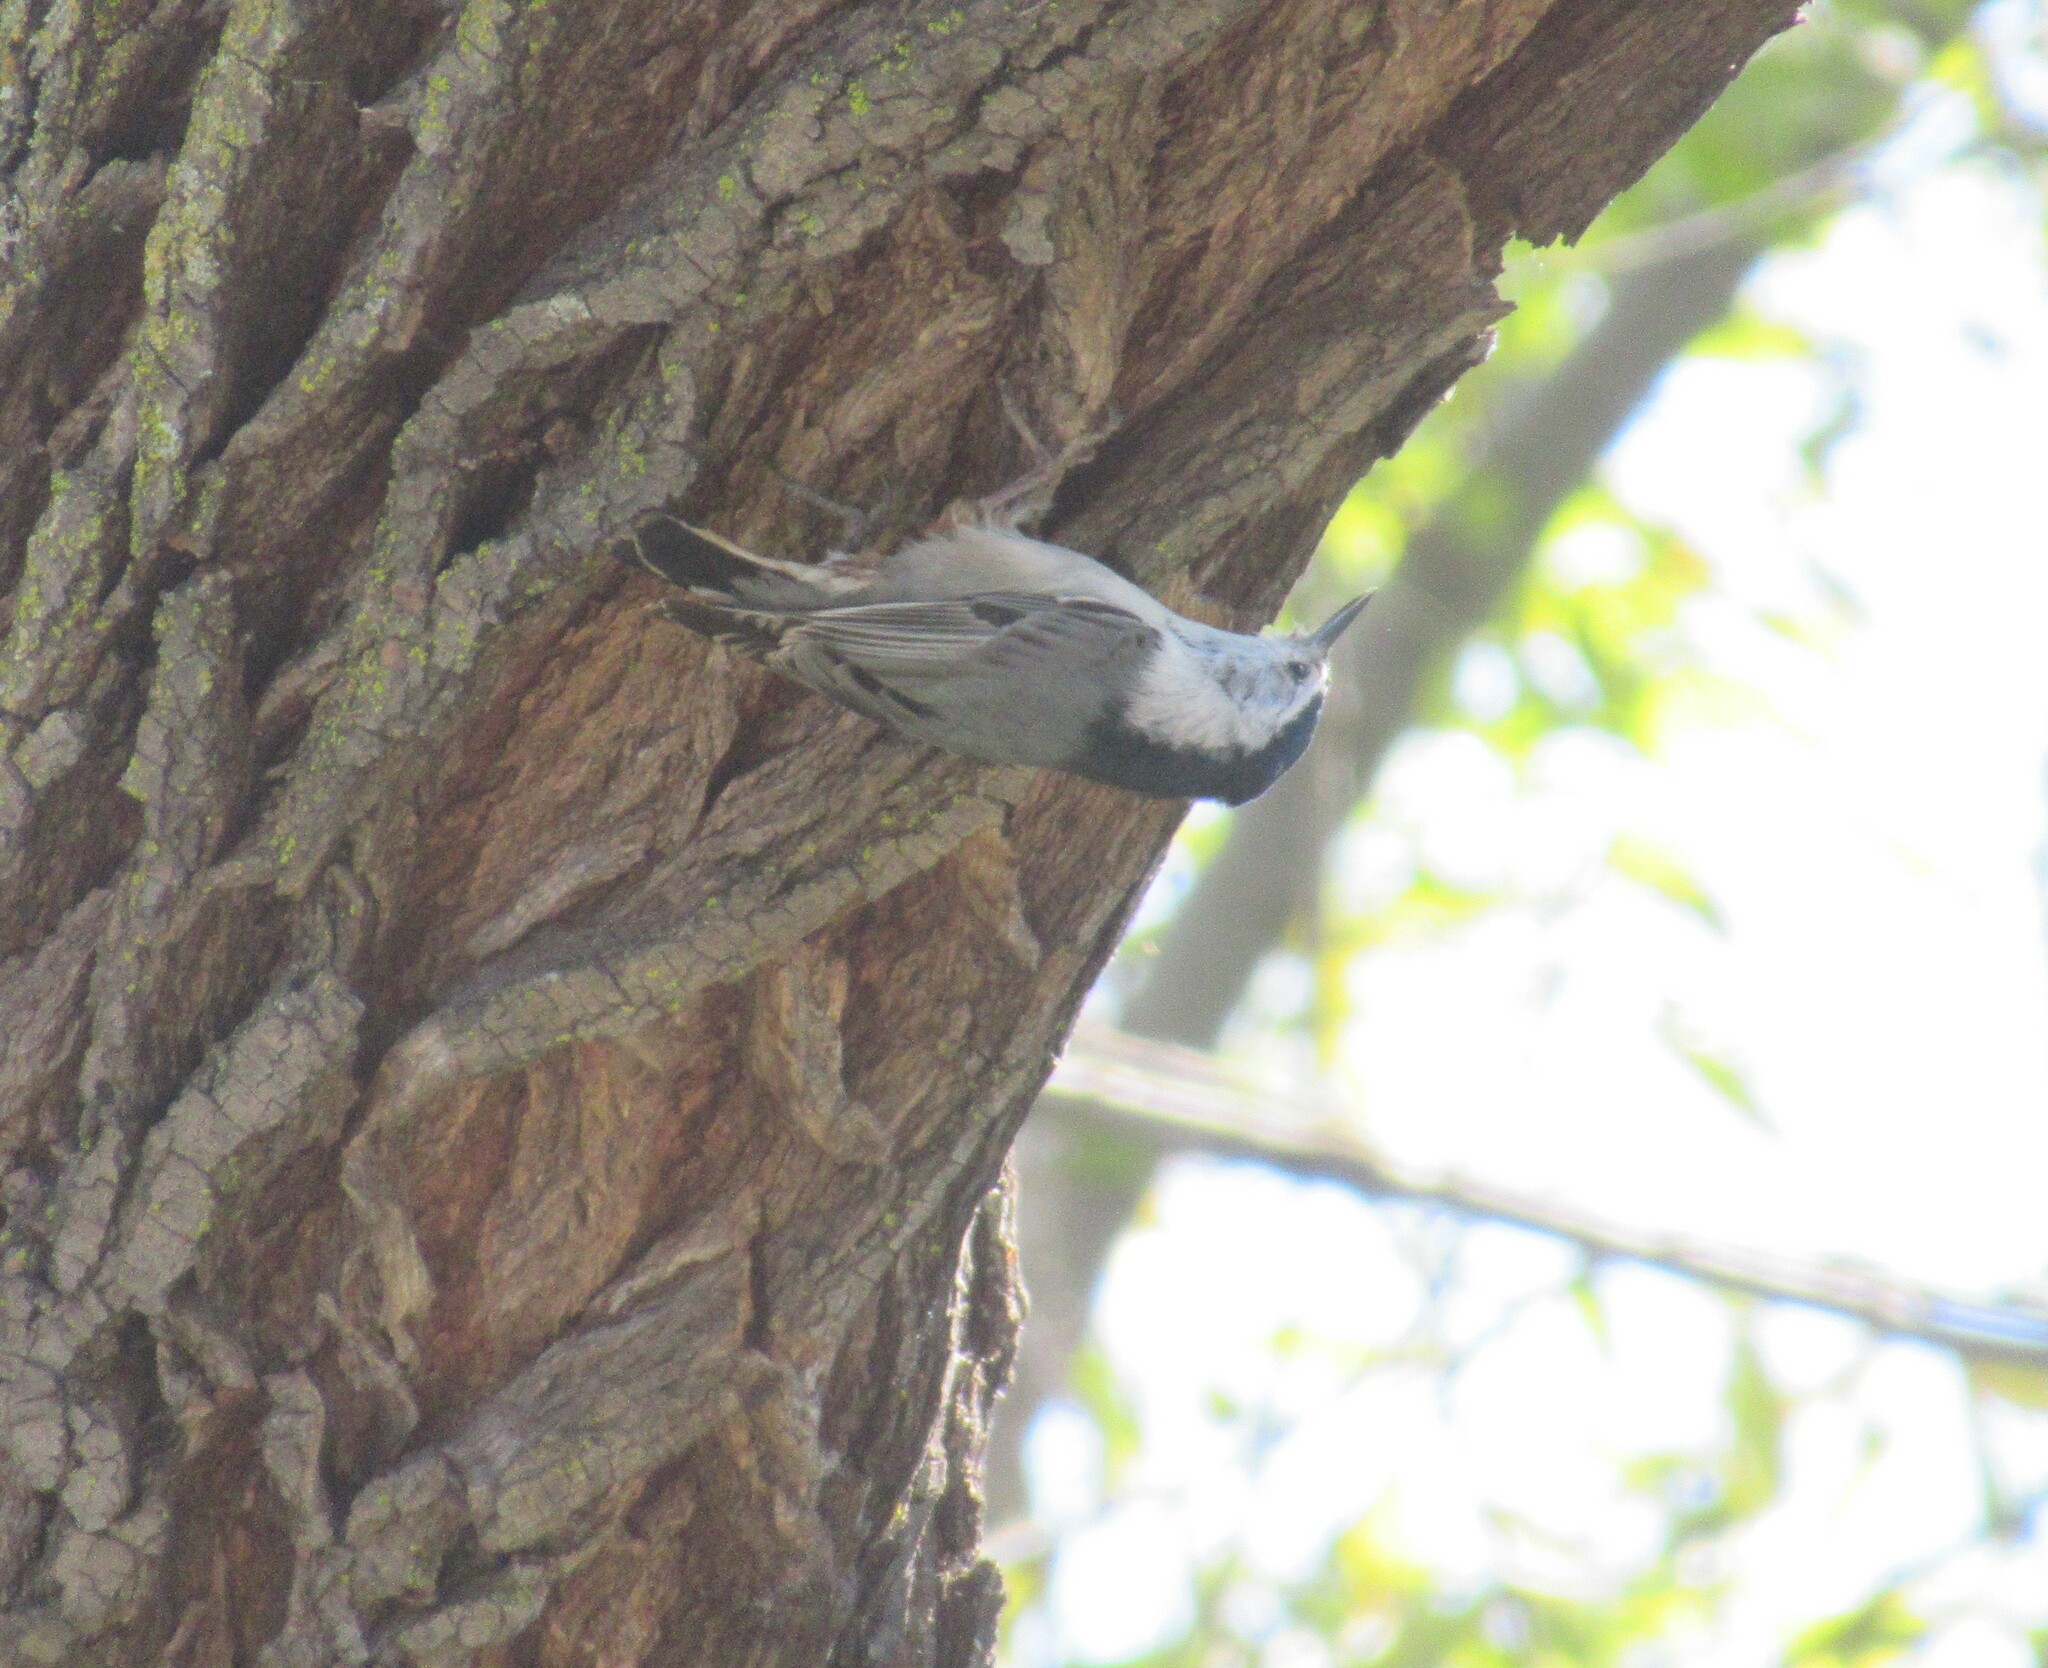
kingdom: Animalia
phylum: Chordata
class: Aves
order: Passeriformes
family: Sittidae
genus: Sitta
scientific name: Sitta carolinensis
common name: White-breasted nuthatch
